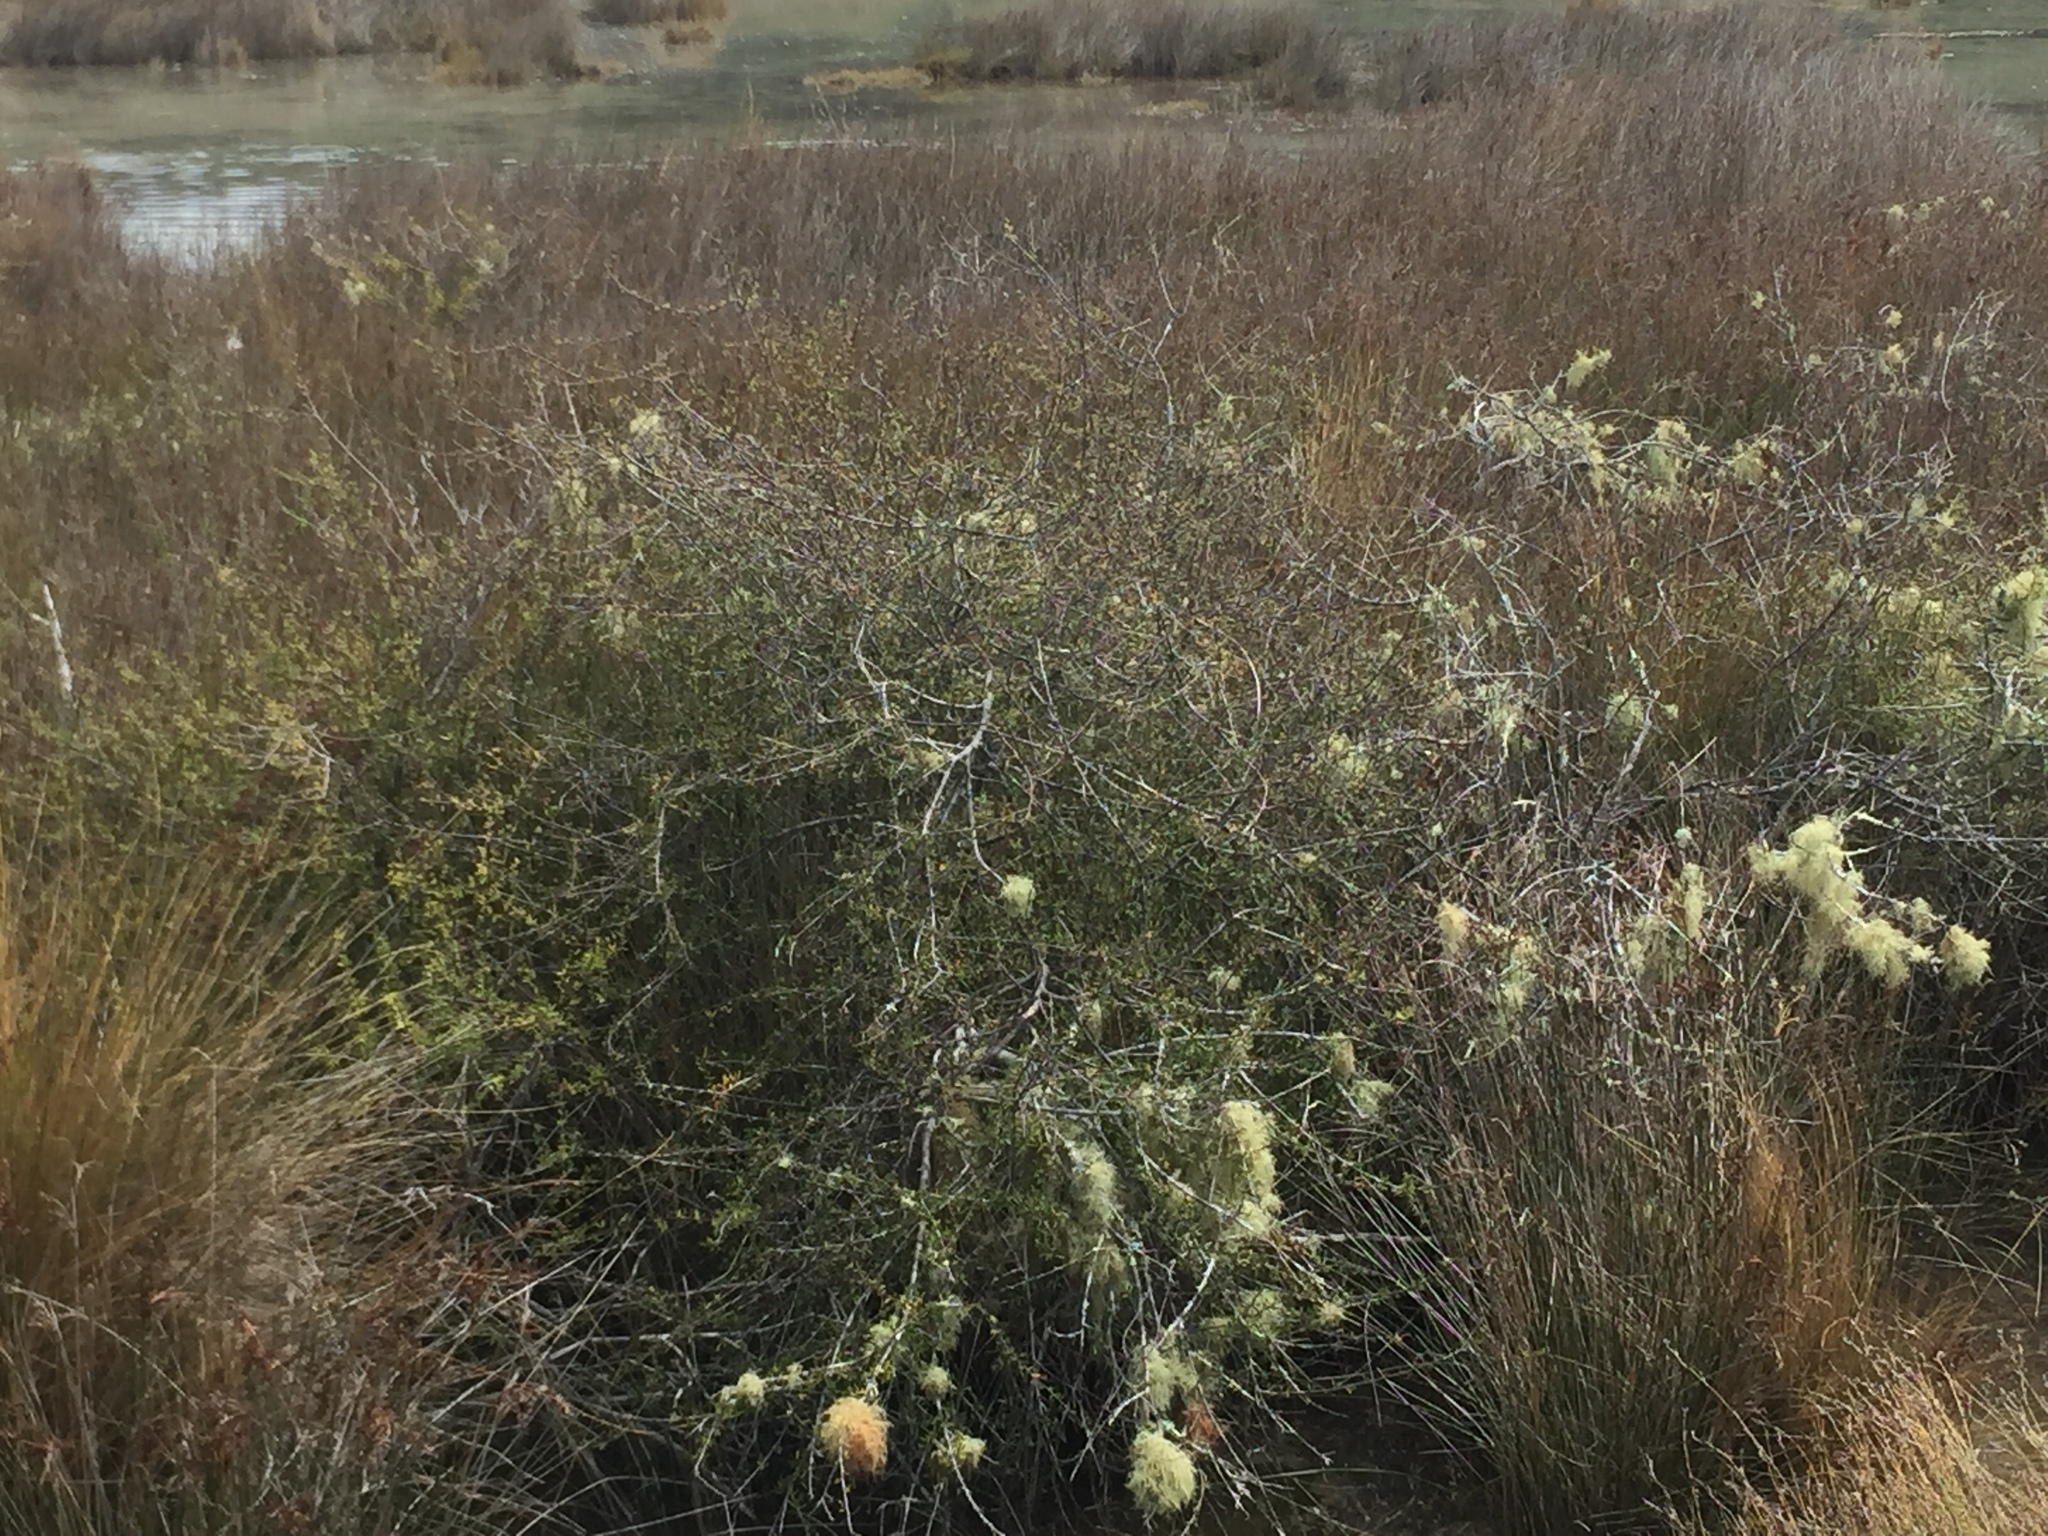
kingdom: Plantae
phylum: Tracheophyta
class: Magnoliopsida
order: Malvales
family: Malvaceae
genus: Plagianthus
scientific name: Plagianthus divaricatus
